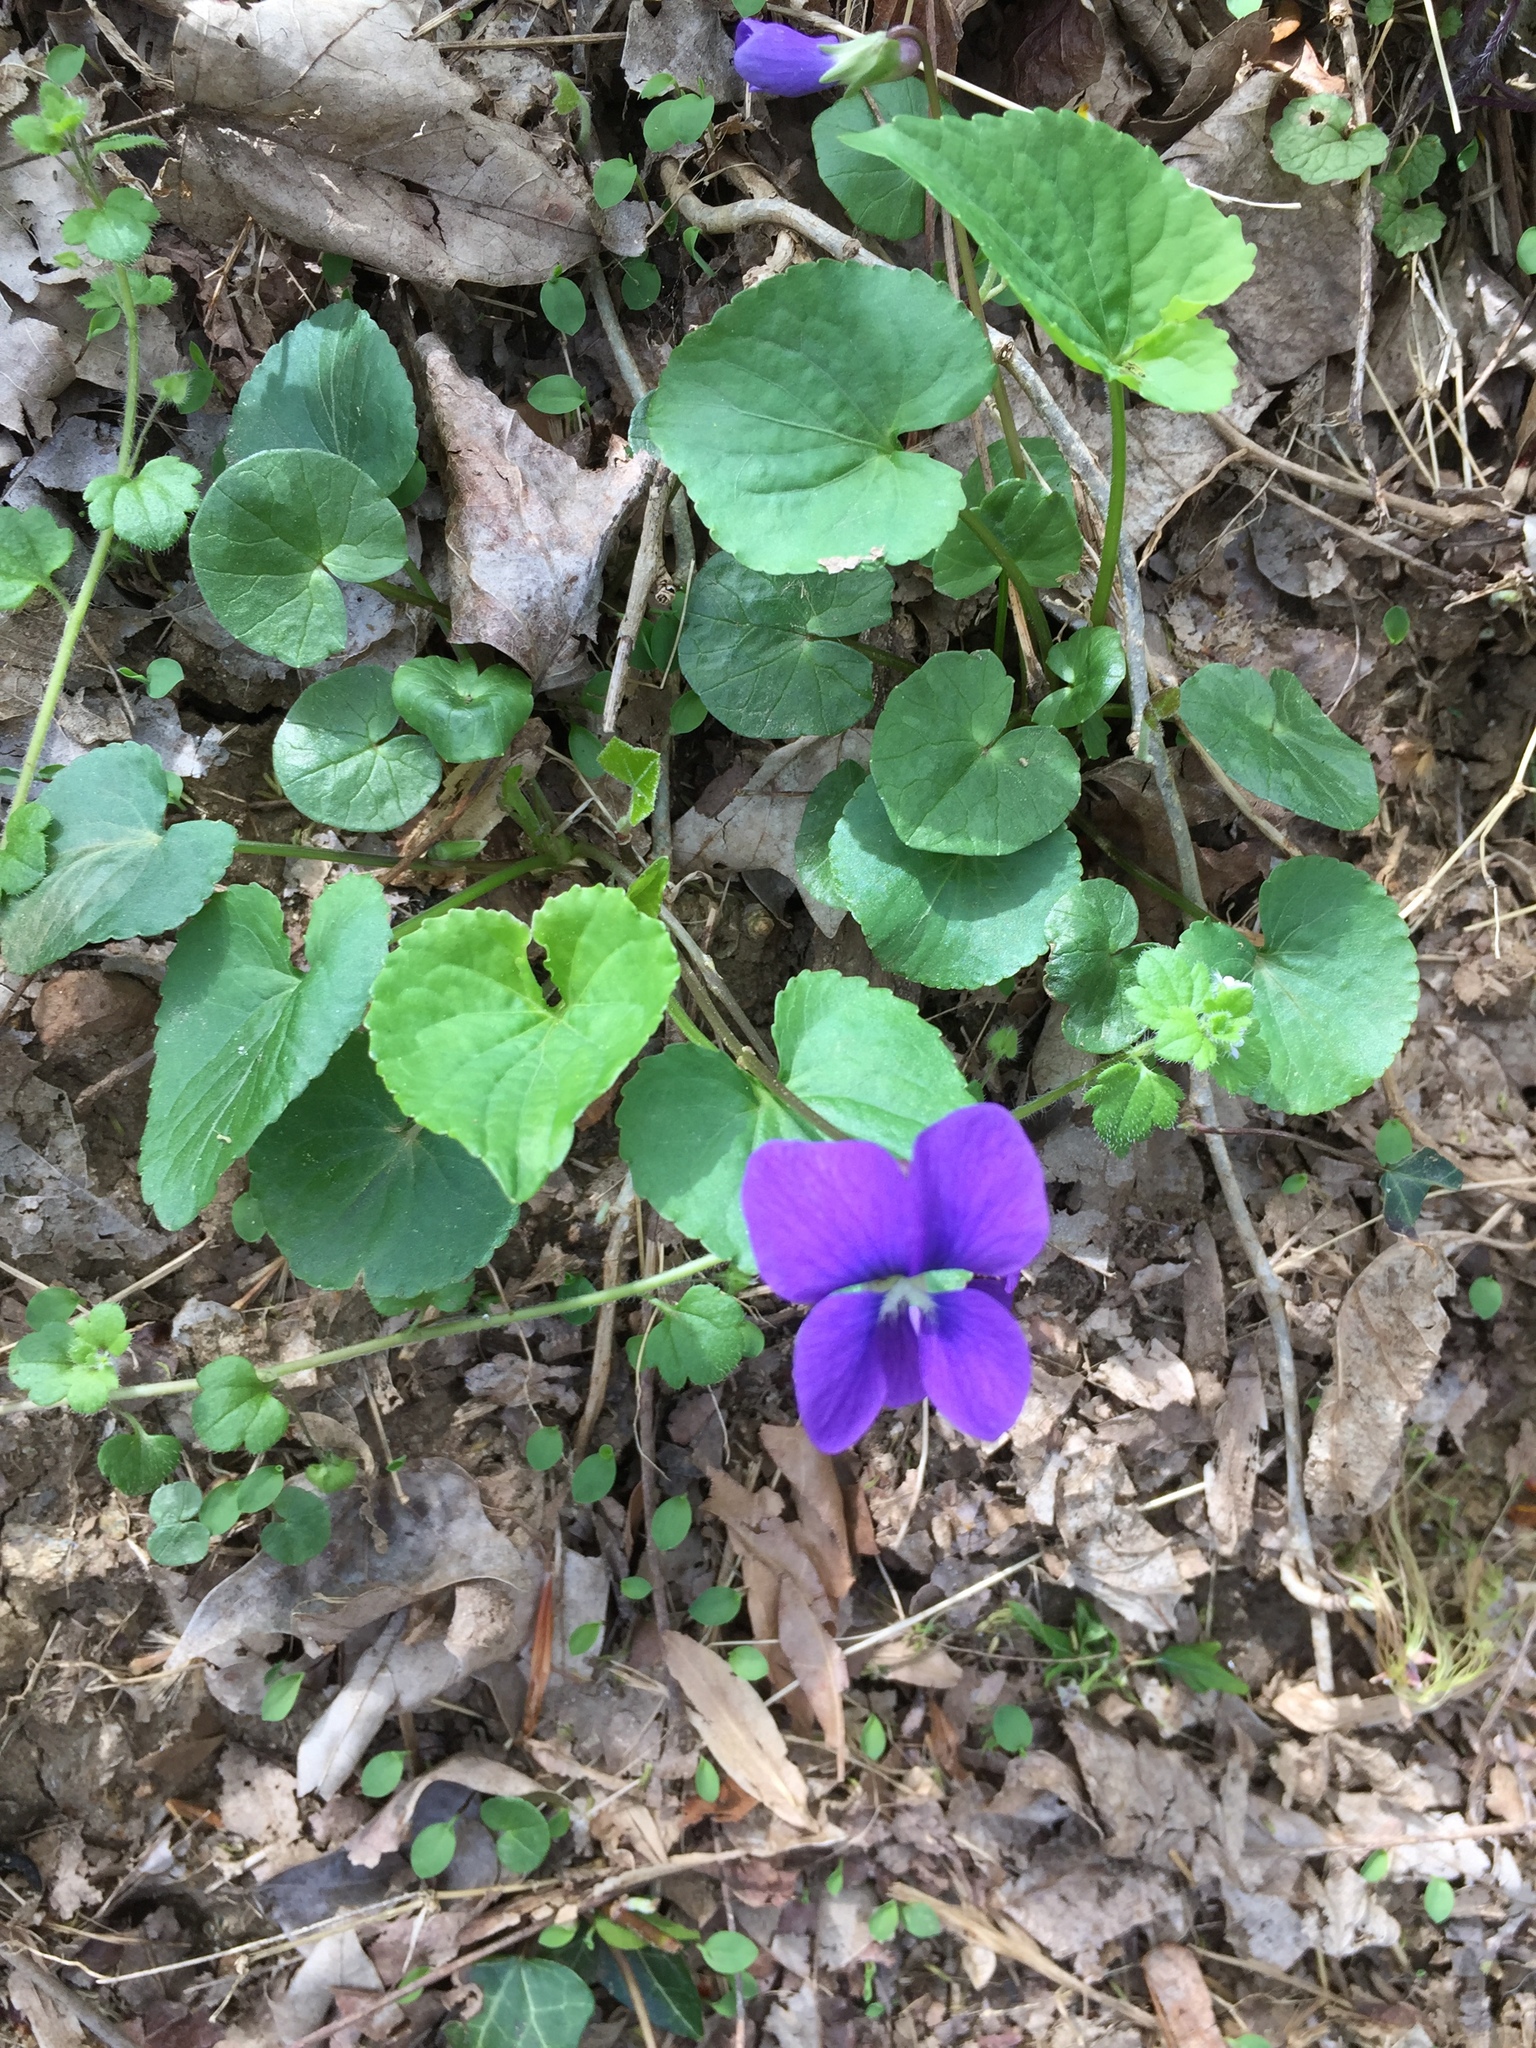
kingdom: Plantae
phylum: Tracheophyta
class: Magnoliopsida
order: Malpighiales
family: Violaceae
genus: Viola
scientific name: Viola sororia
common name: Dooryard violet
